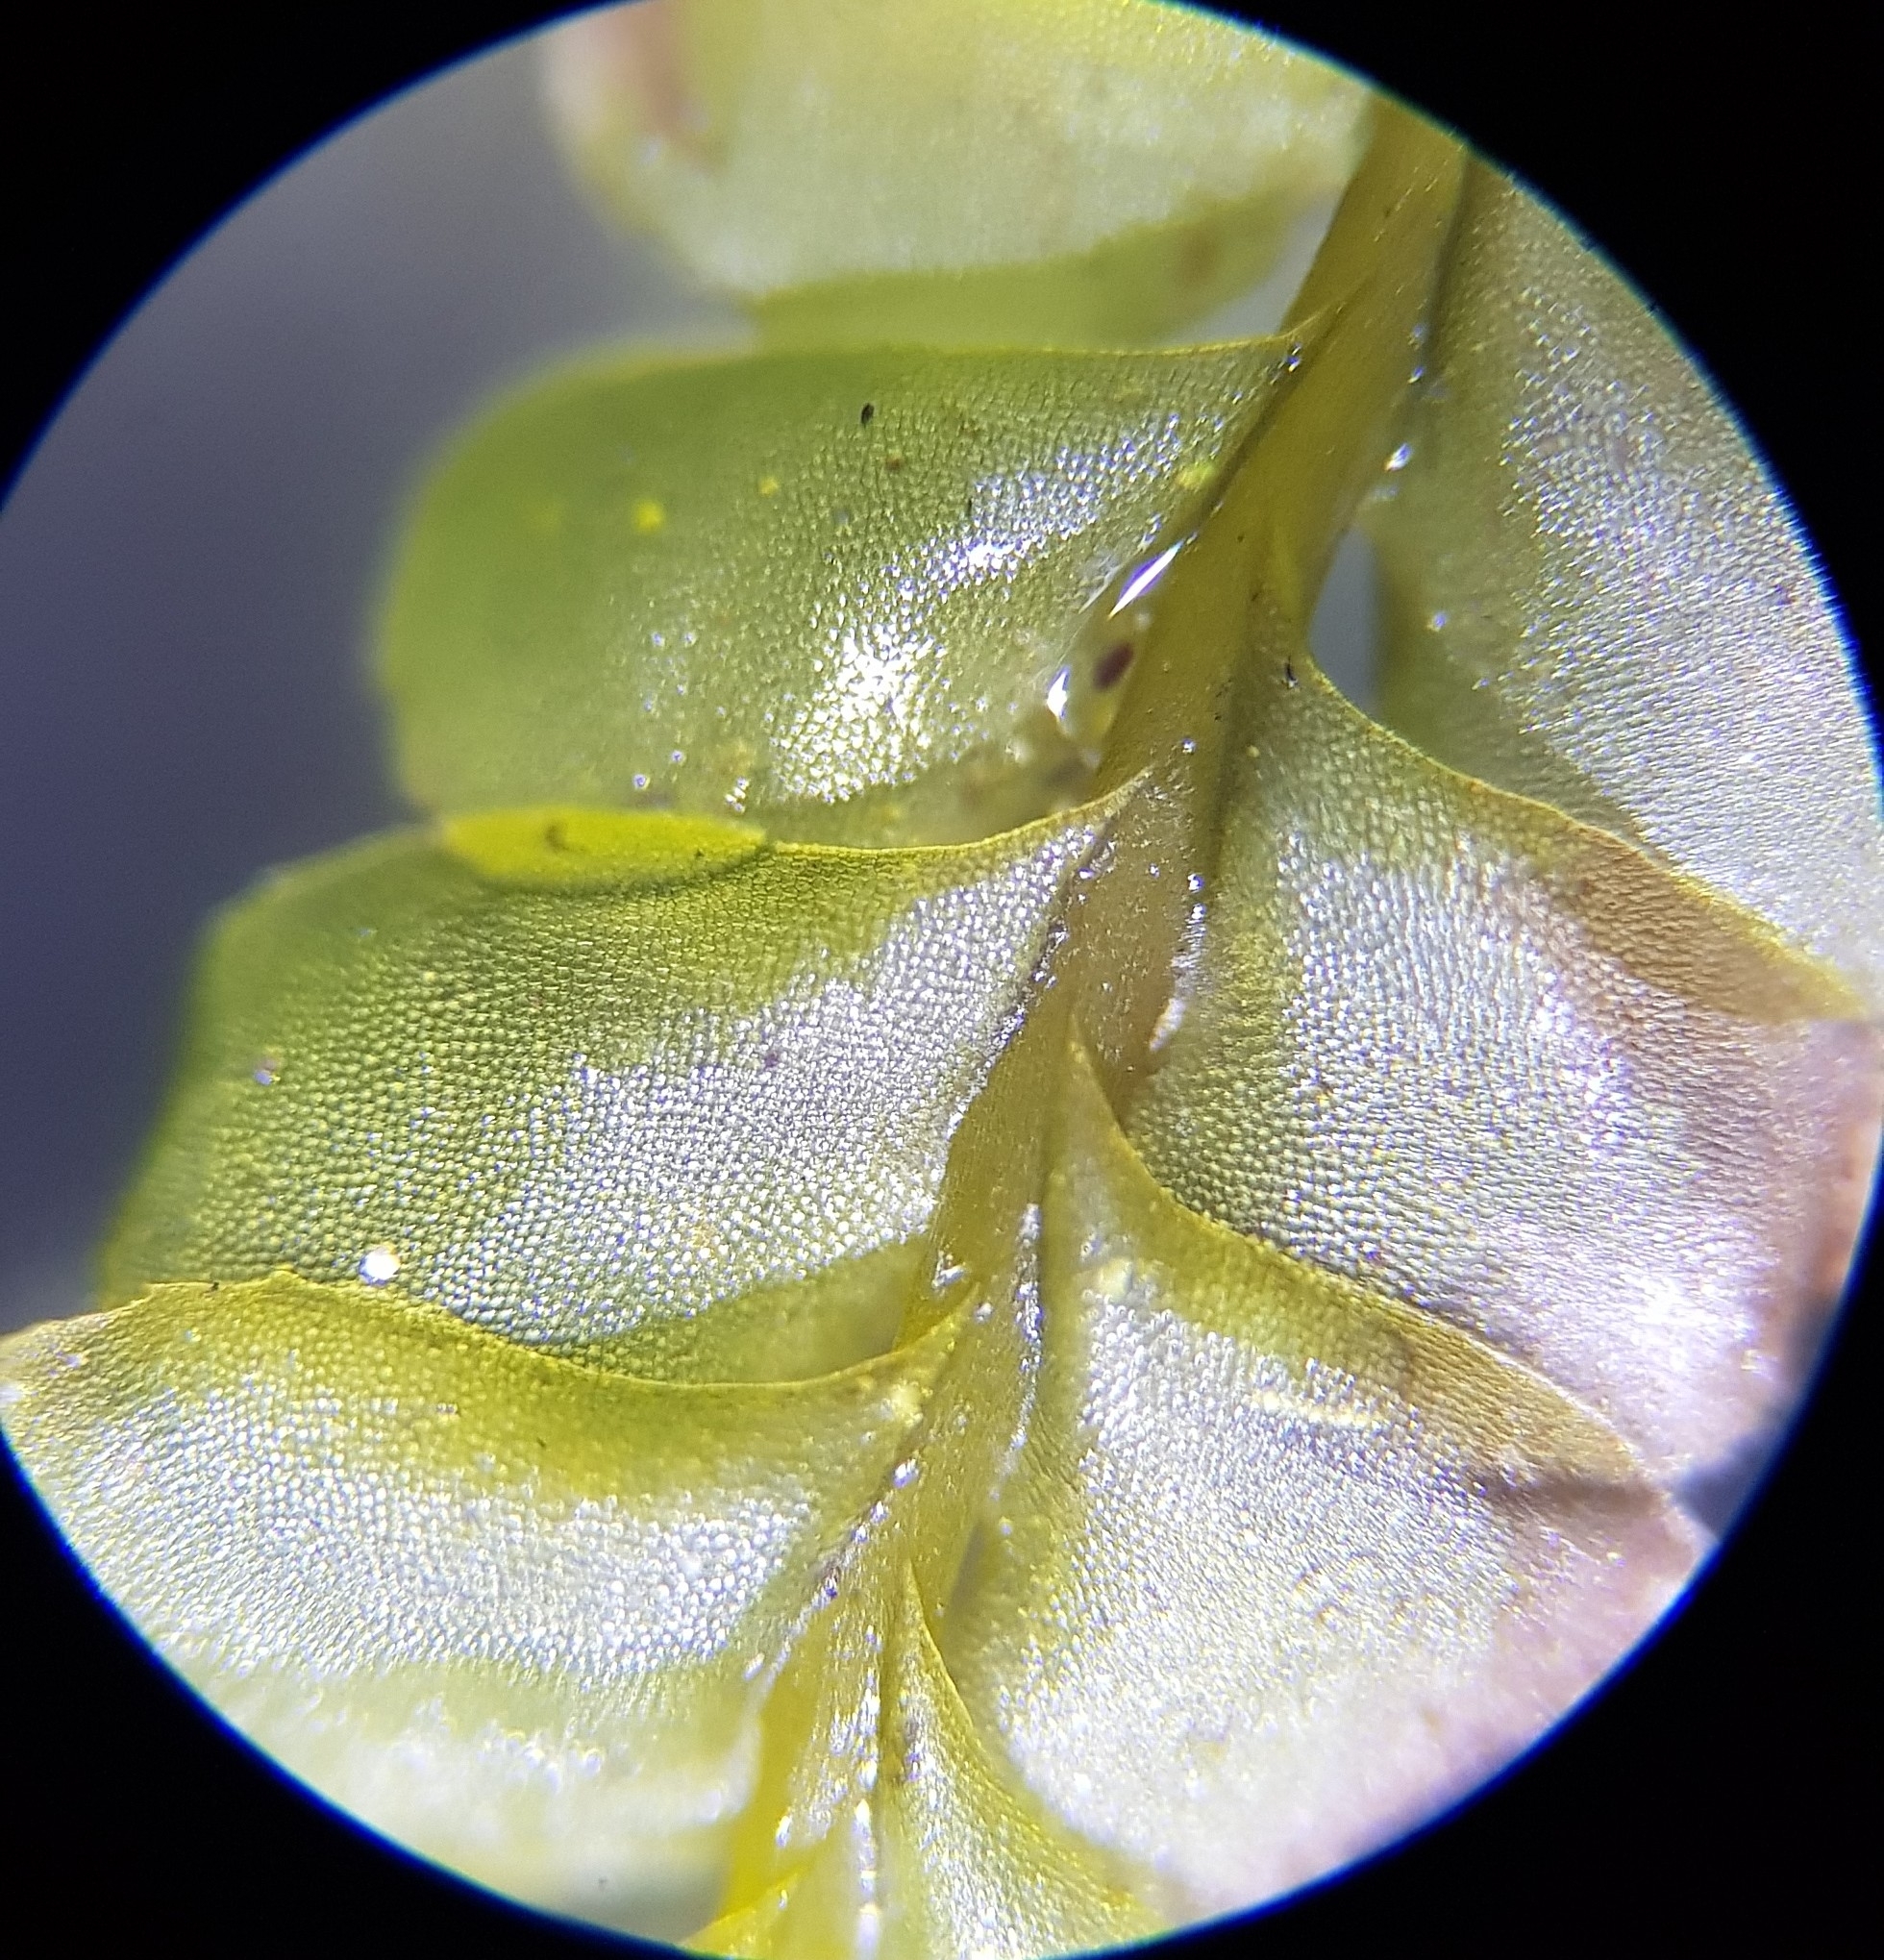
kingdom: Plantae
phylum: Marchantiophyta
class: Jungermanniopsida
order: Jungermanniales
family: Plagiochilaceae
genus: Plagiochila
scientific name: Plagiochila porelloides
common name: Lesser featherwort
